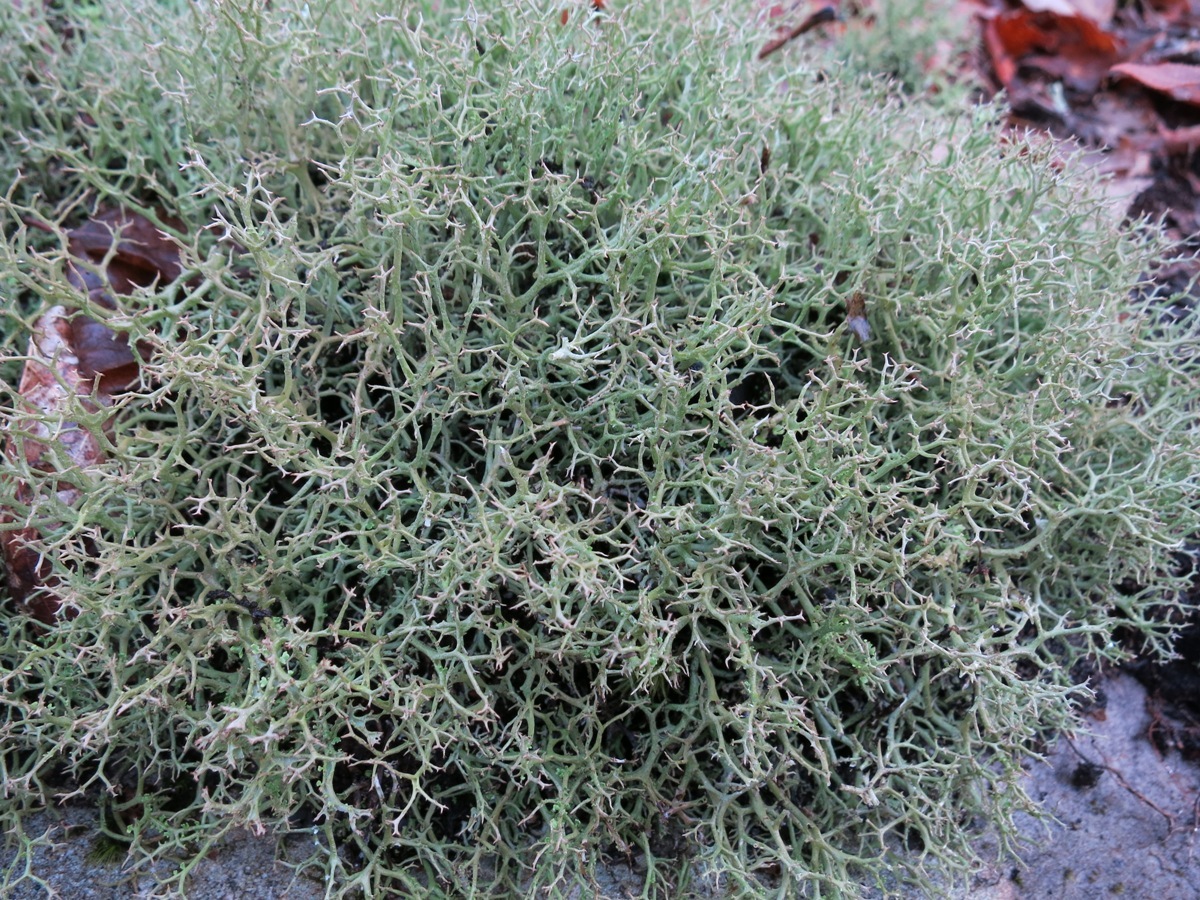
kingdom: Fungi
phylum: Ascomycota
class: Lecanoromycetes
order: Lecanorales
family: Cladoniaceae
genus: Cladonia
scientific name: Cladonia furcata
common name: Many-forked cladonia
